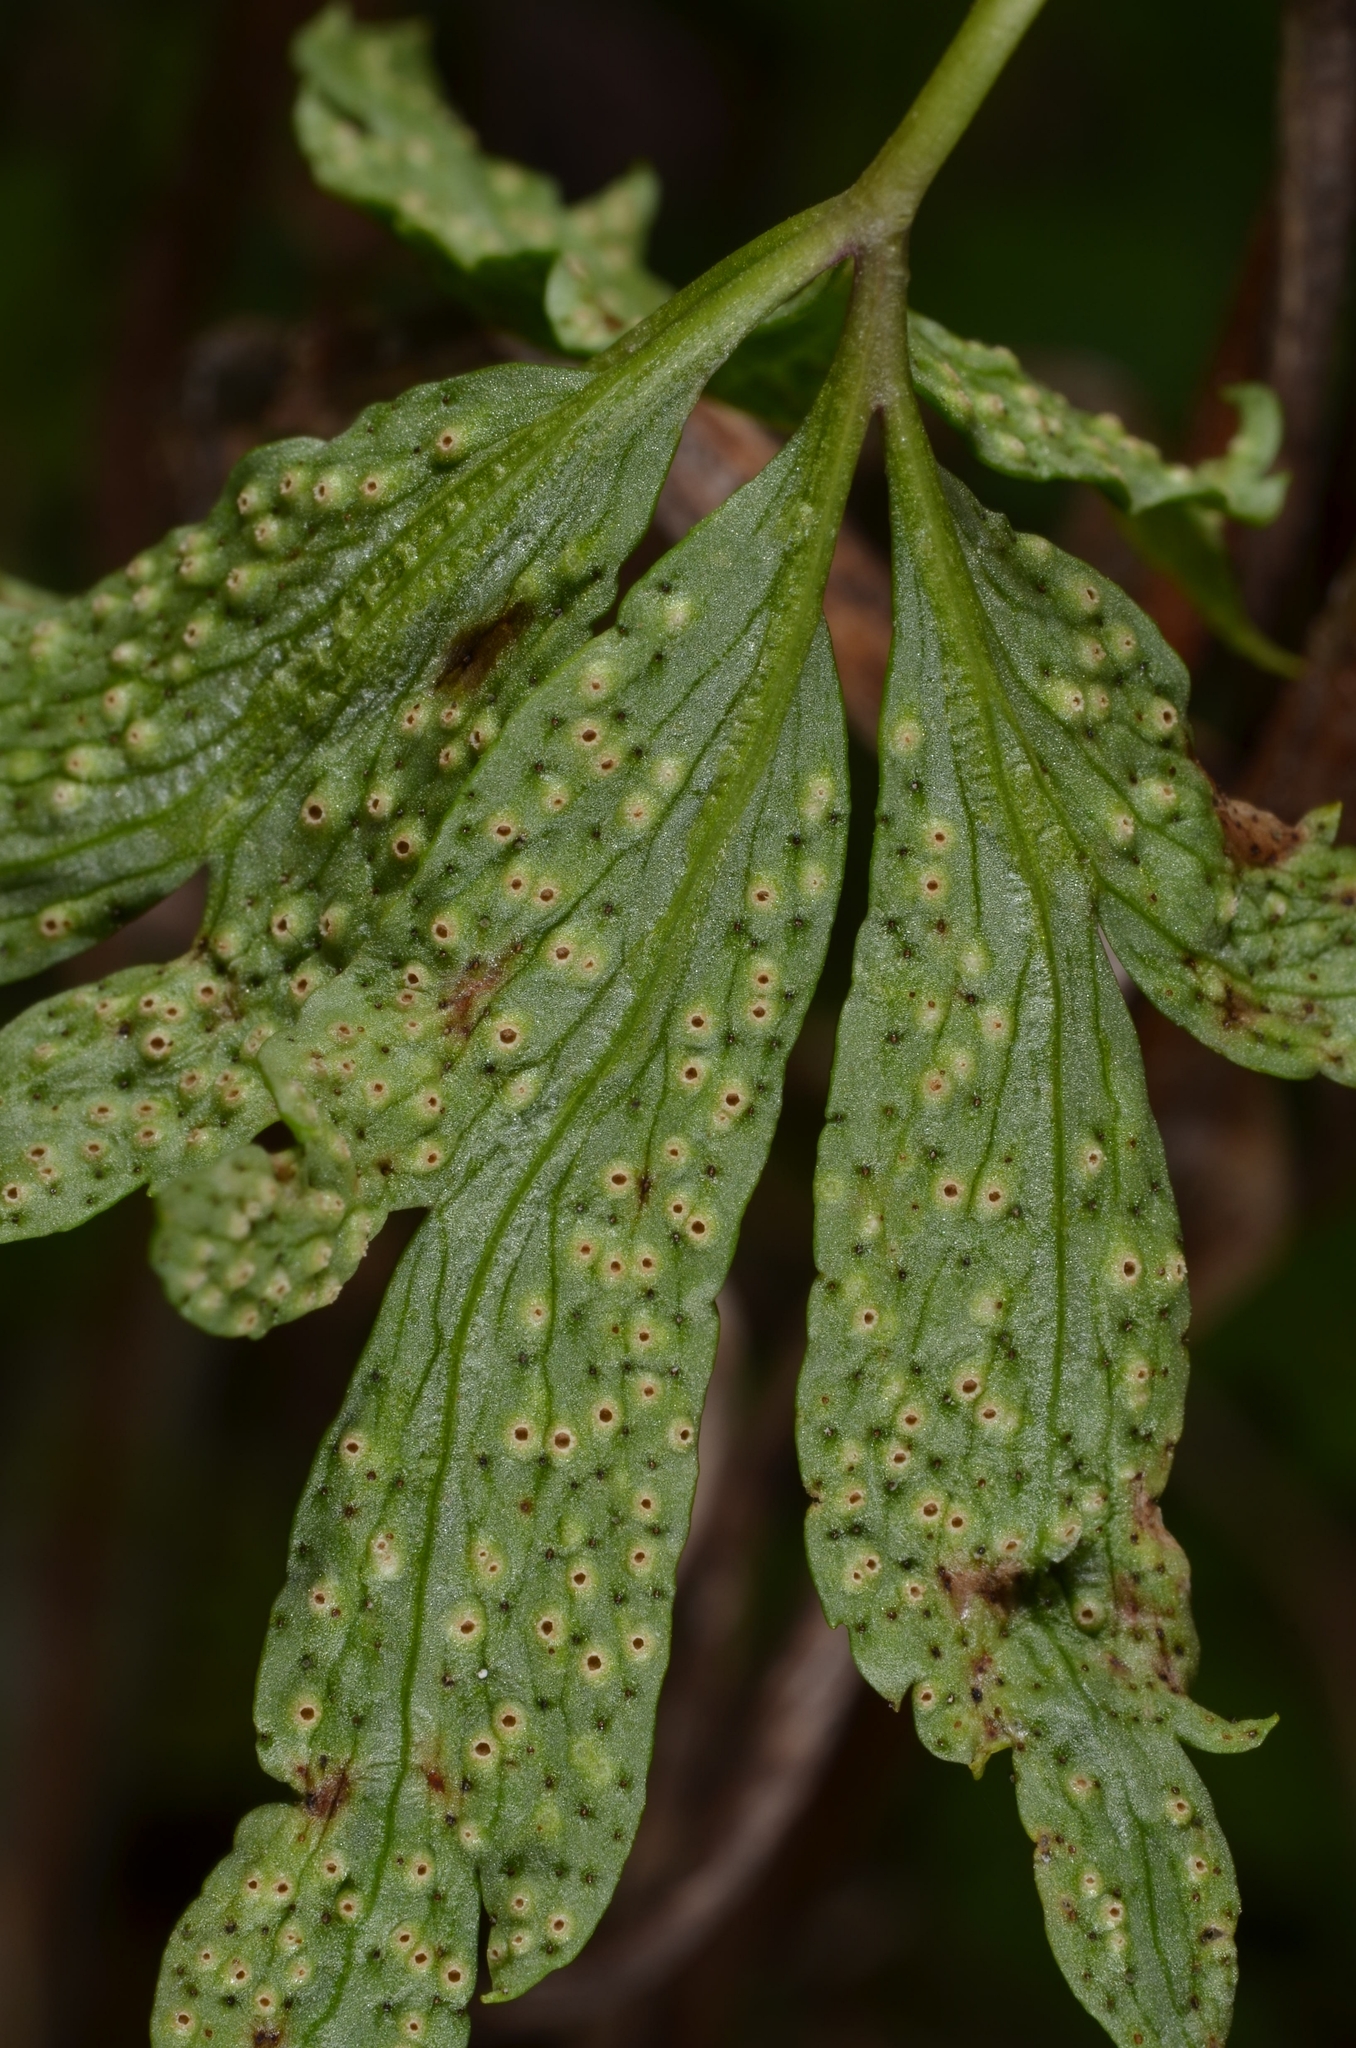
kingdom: Fungi
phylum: Basidiomycota
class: Pucciniomycetes
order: Pucciniales
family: Tranzscheliaceae
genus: Tranzschelia
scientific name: Tranzschelia pruni-spinosae
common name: Blackthorn rust
